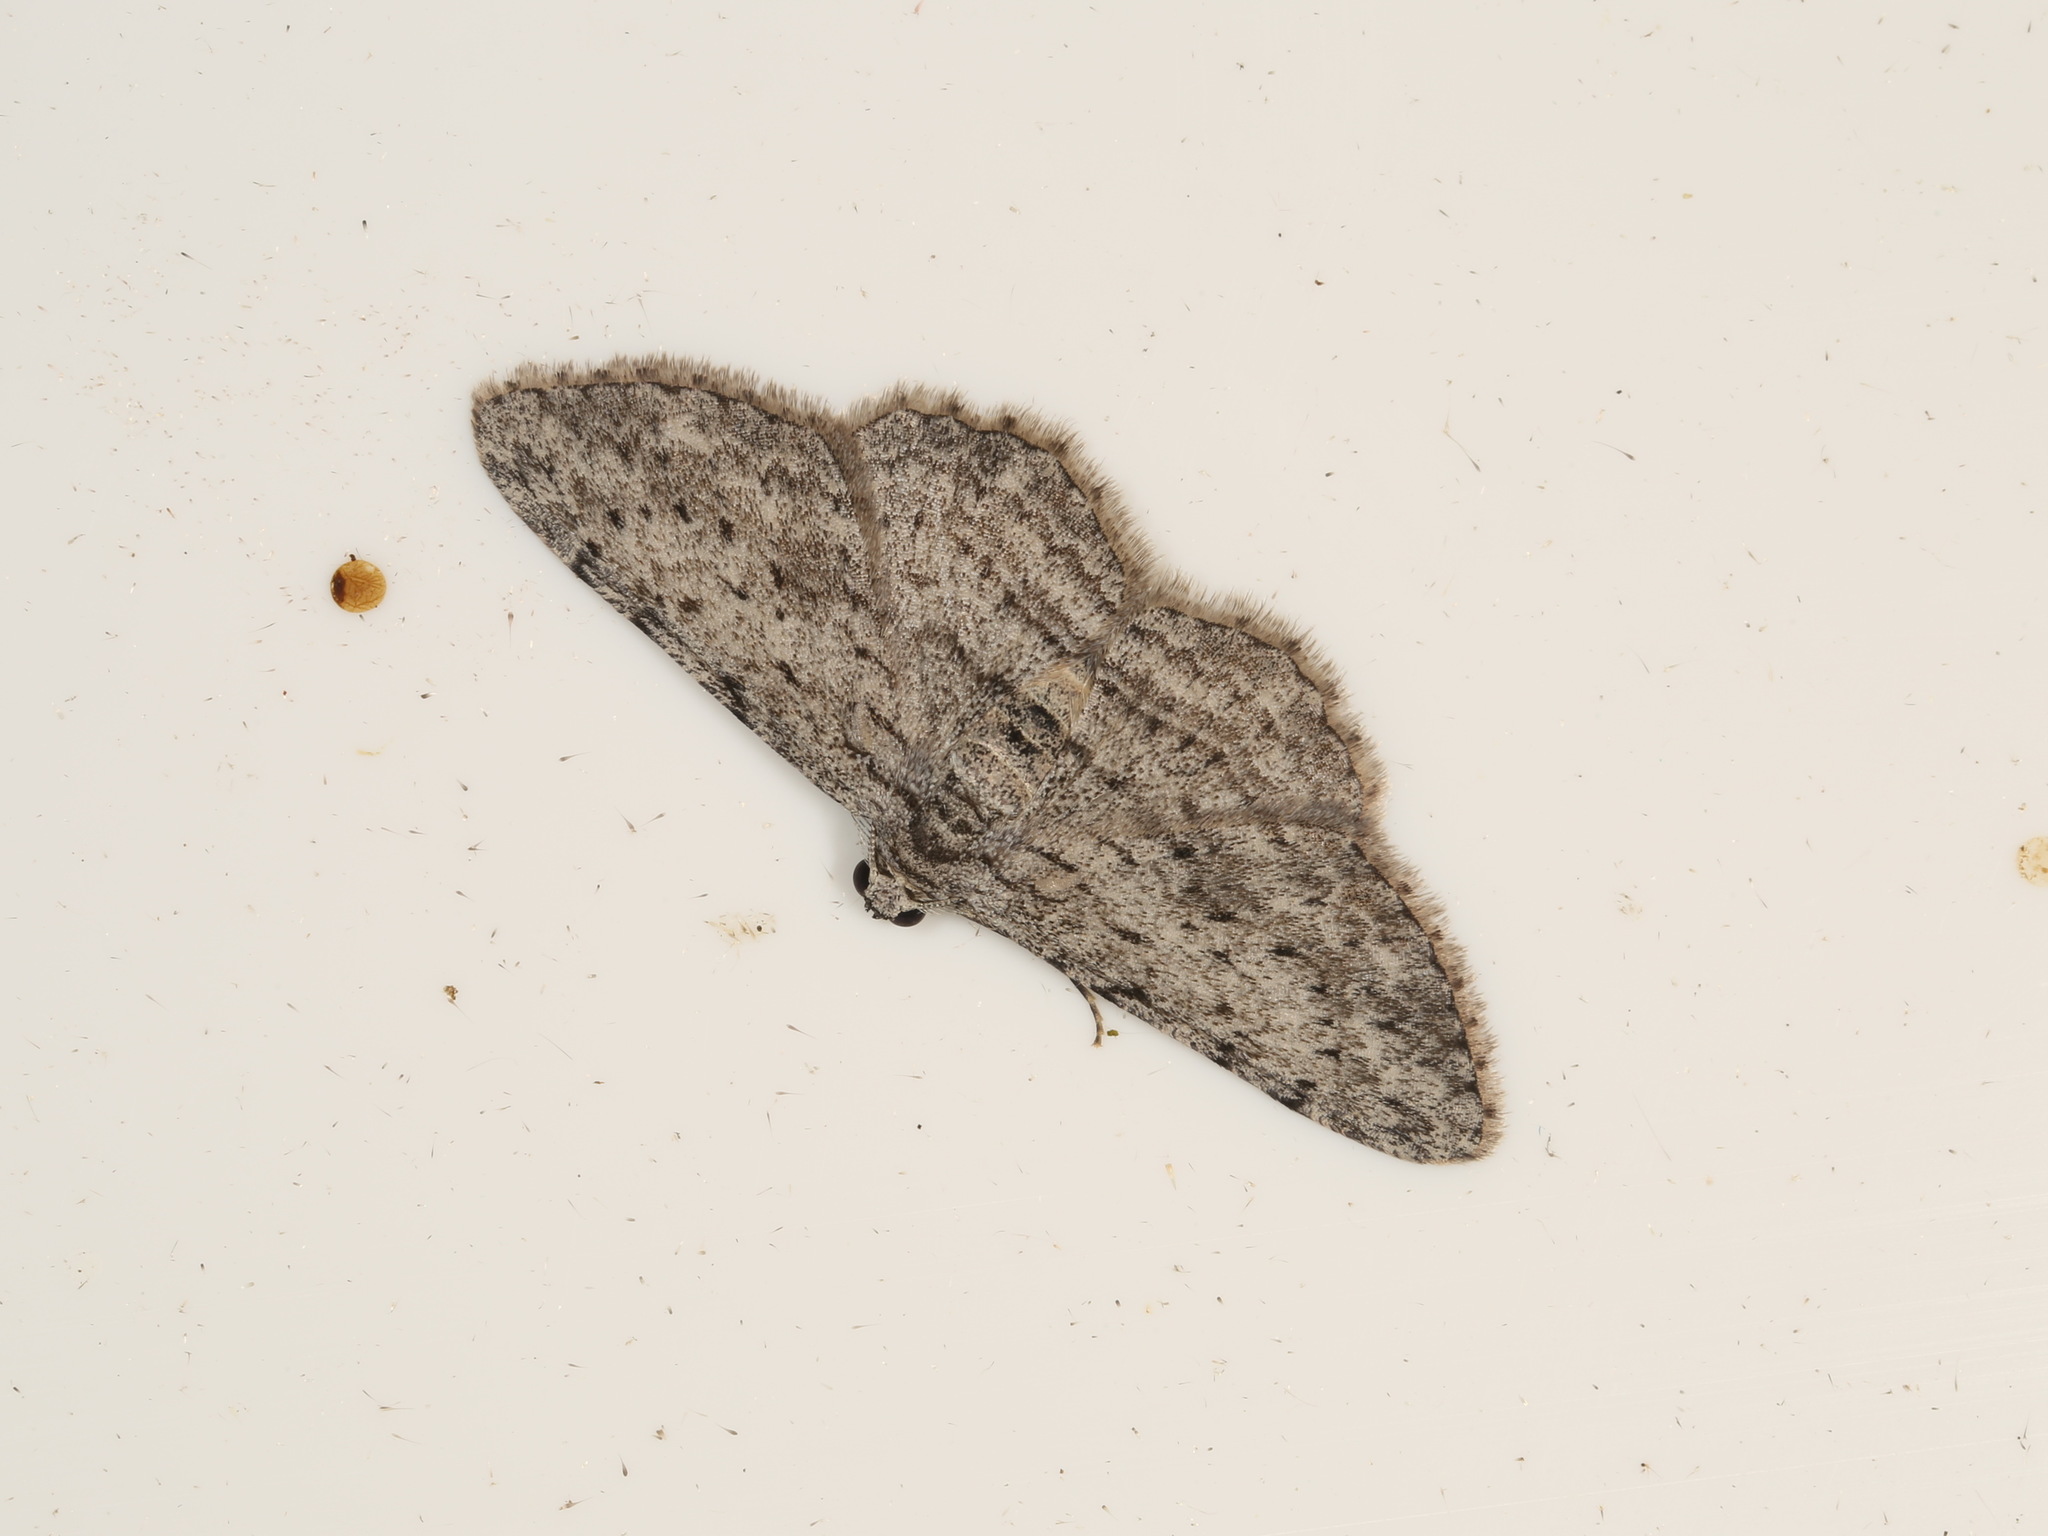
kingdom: Animalia
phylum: Arthropoda
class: Insecta
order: Lepidoptera
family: Geometridae
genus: Phelotis
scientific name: Phelotis cognata
